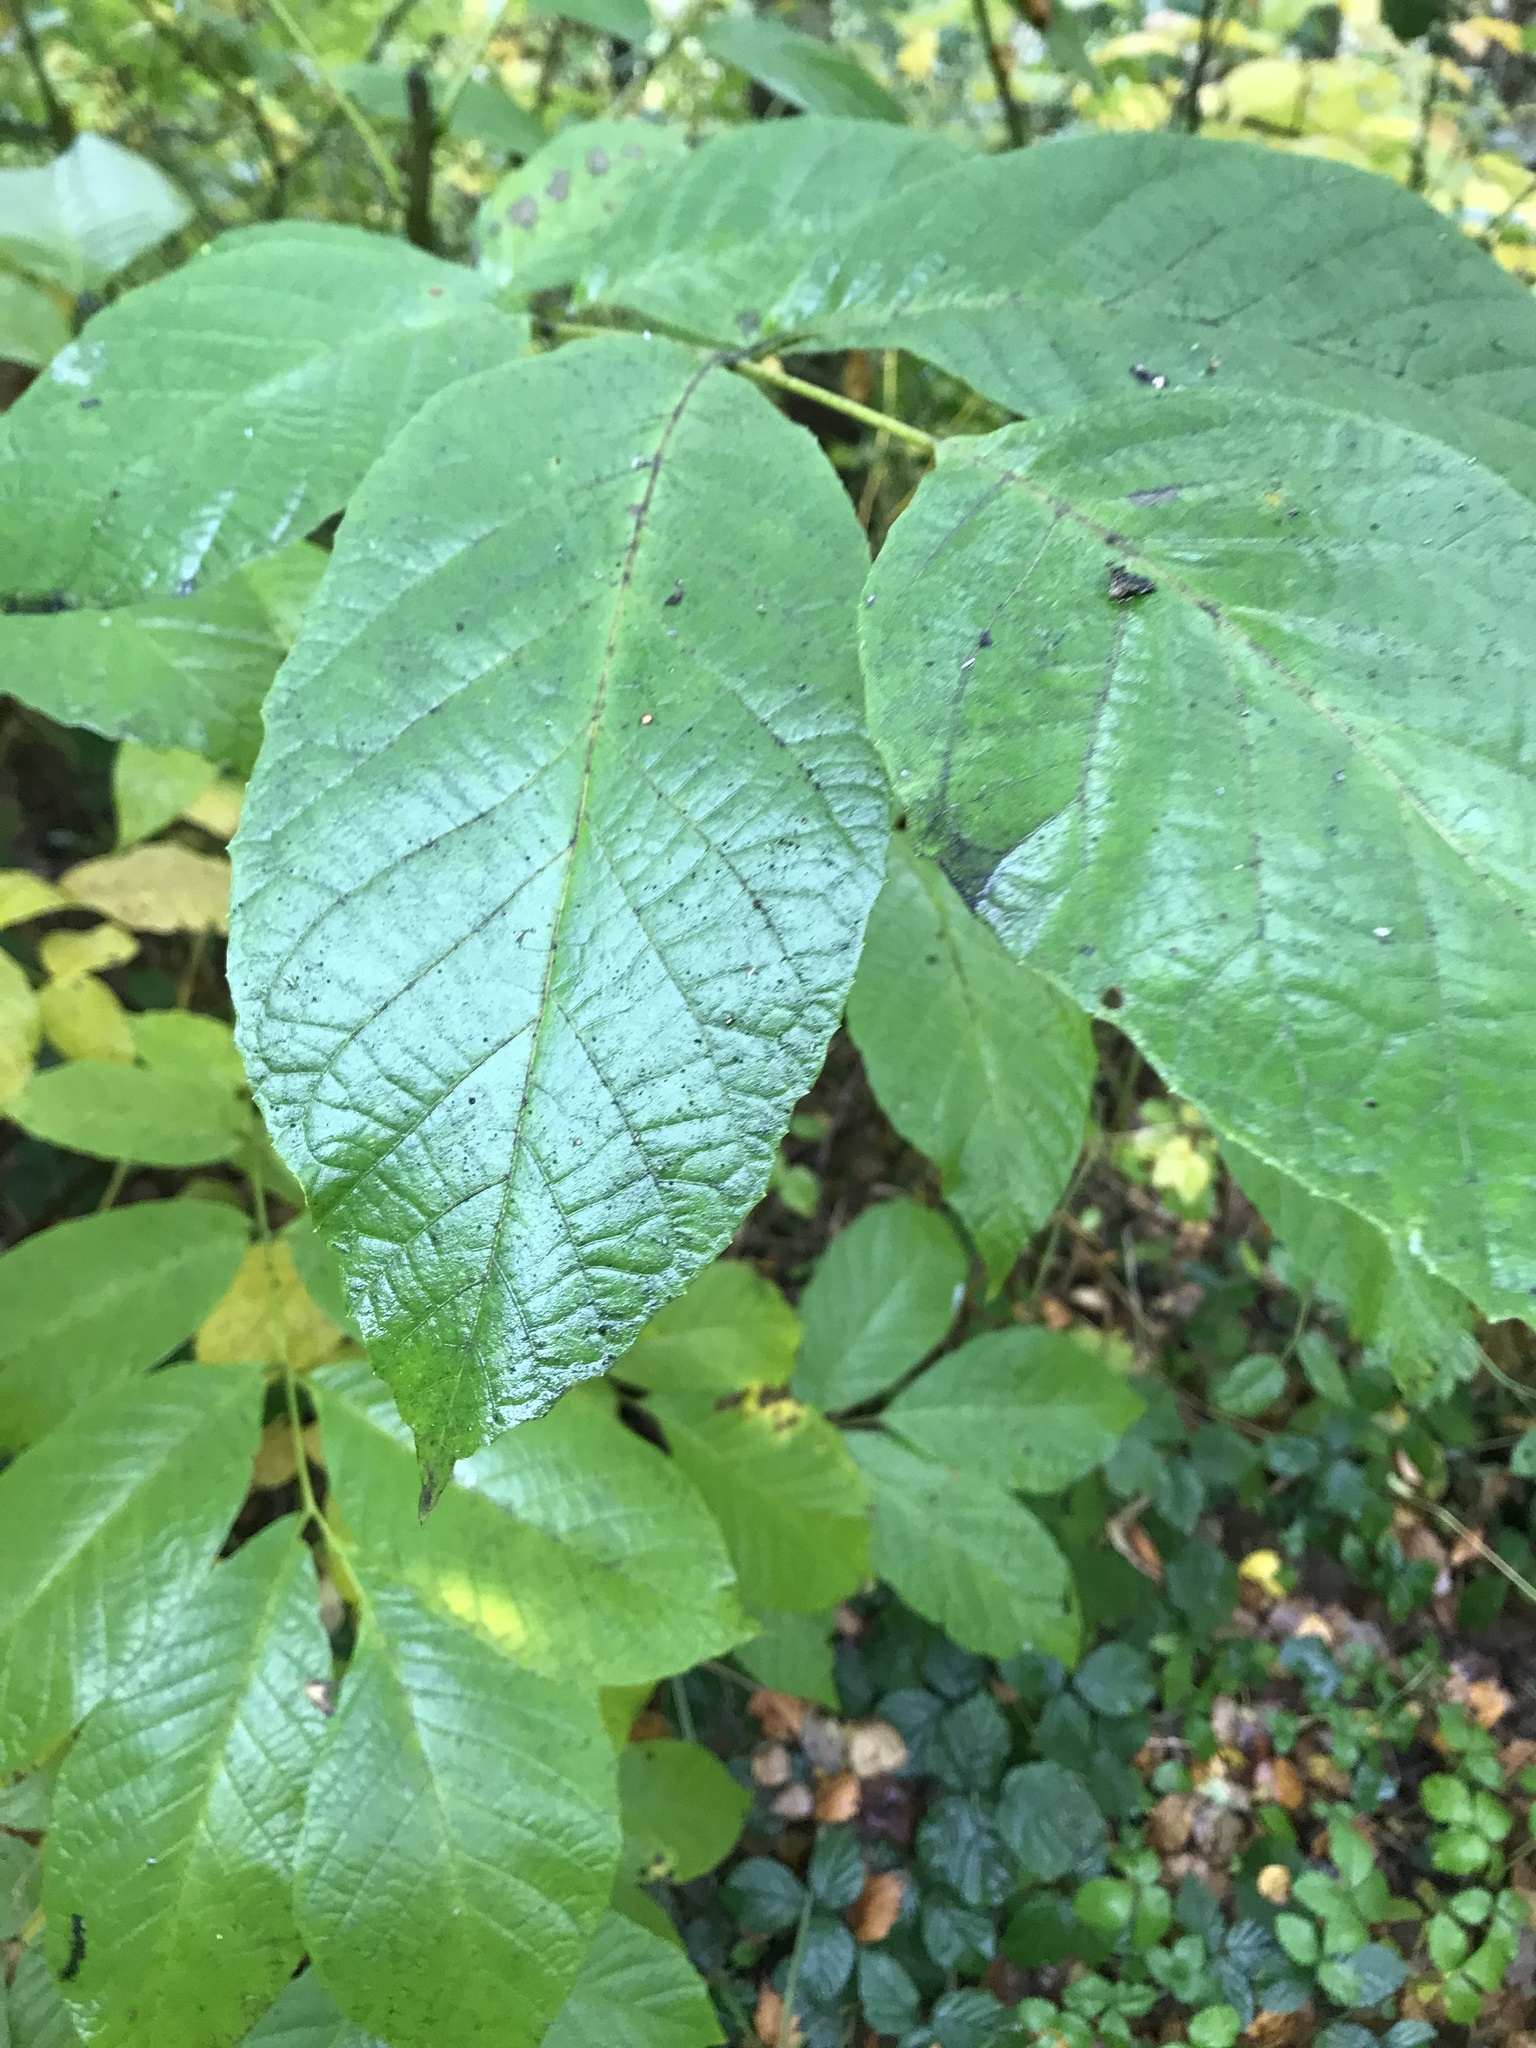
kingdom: Plantae
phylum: Tracheophyta
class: Magnoliopsida
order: Fagales
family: Juglandaceae
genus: Juglans
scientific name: Juglans regia
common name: Walnut
